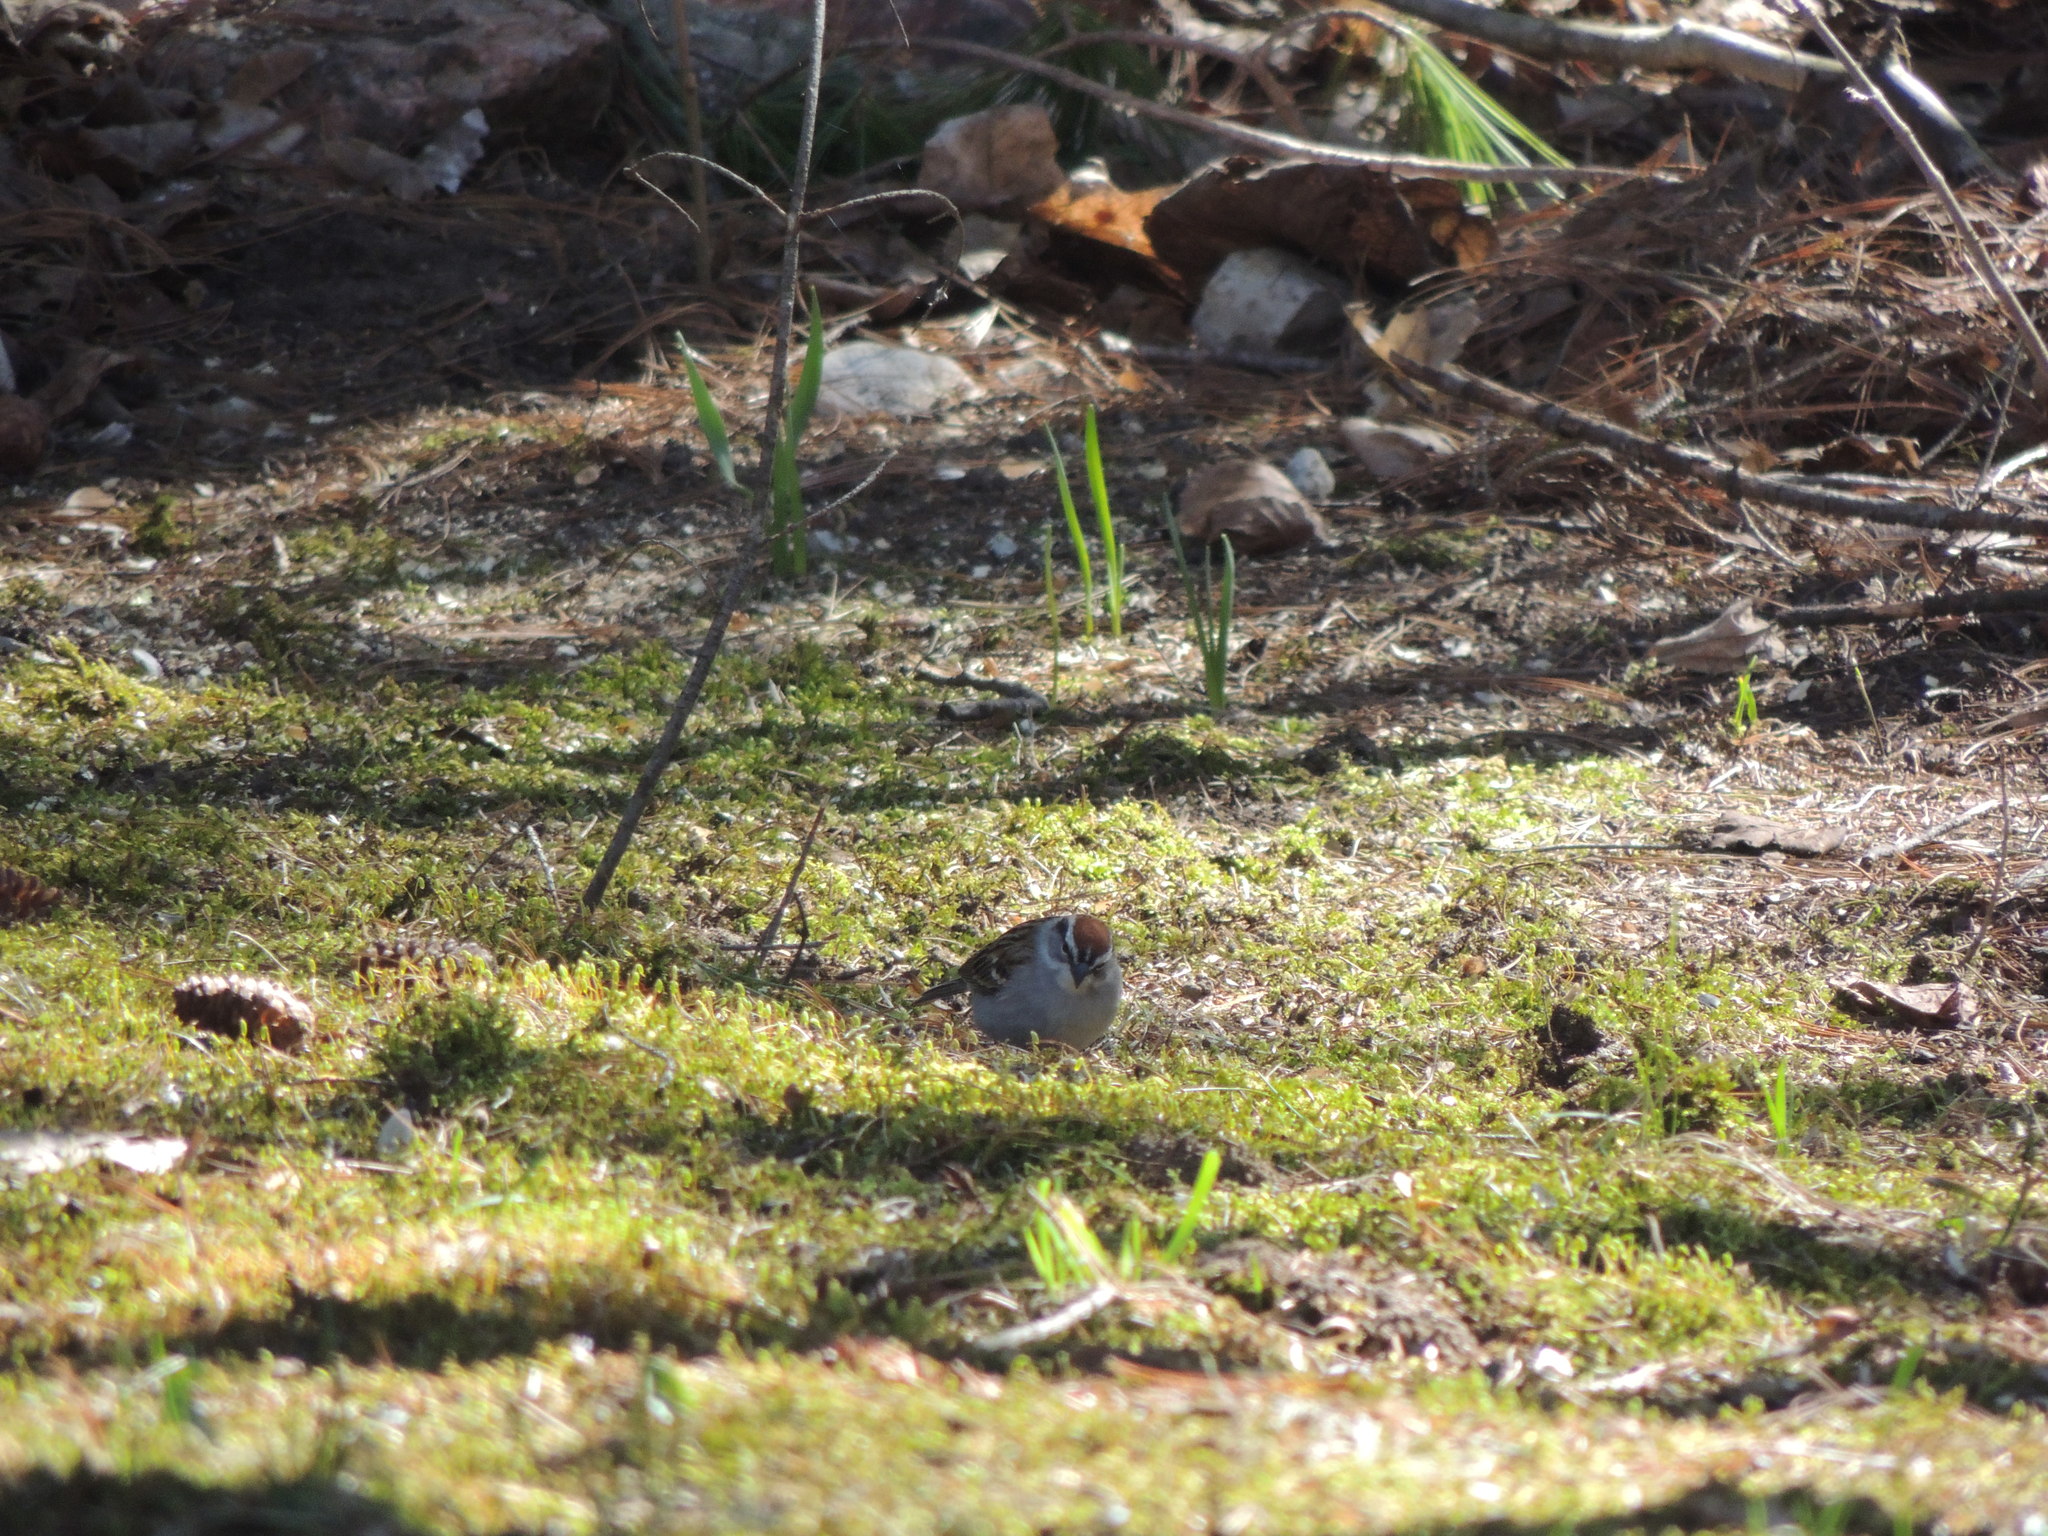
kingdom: Animalia
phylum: Chordata
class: Aves
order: Passeriformes
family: Passerellidae
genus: Spizella
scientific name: Spizella passerina
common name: Chipping sparrow
